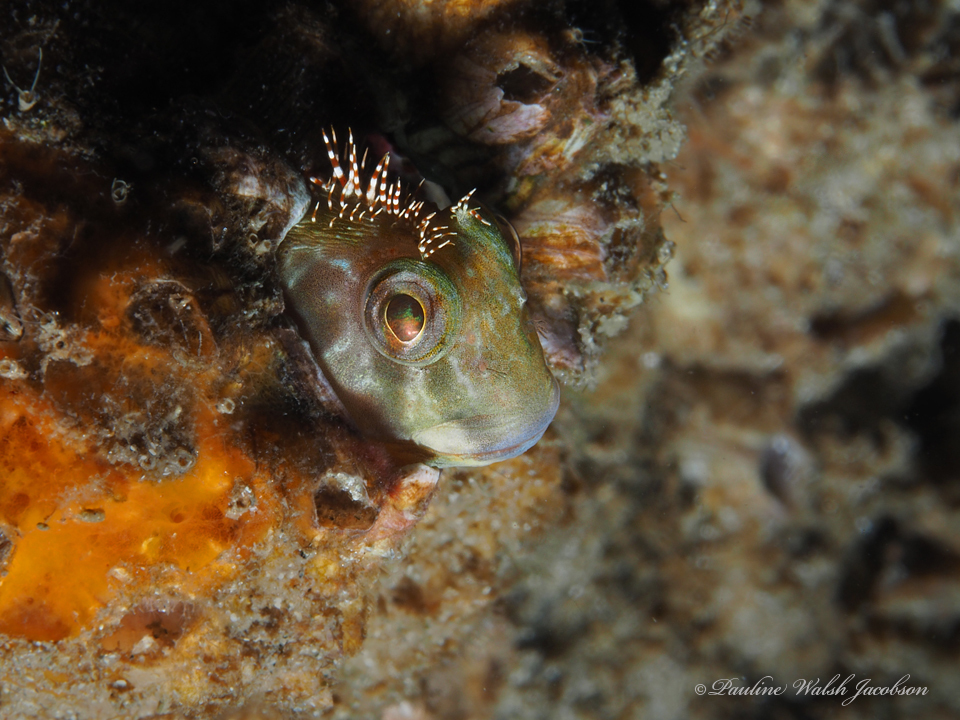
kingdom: Animalia
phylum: Chordata
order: Perciformes
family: Blenniidae
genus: Scartella
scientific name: Scartella cristata
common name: Molly miller
